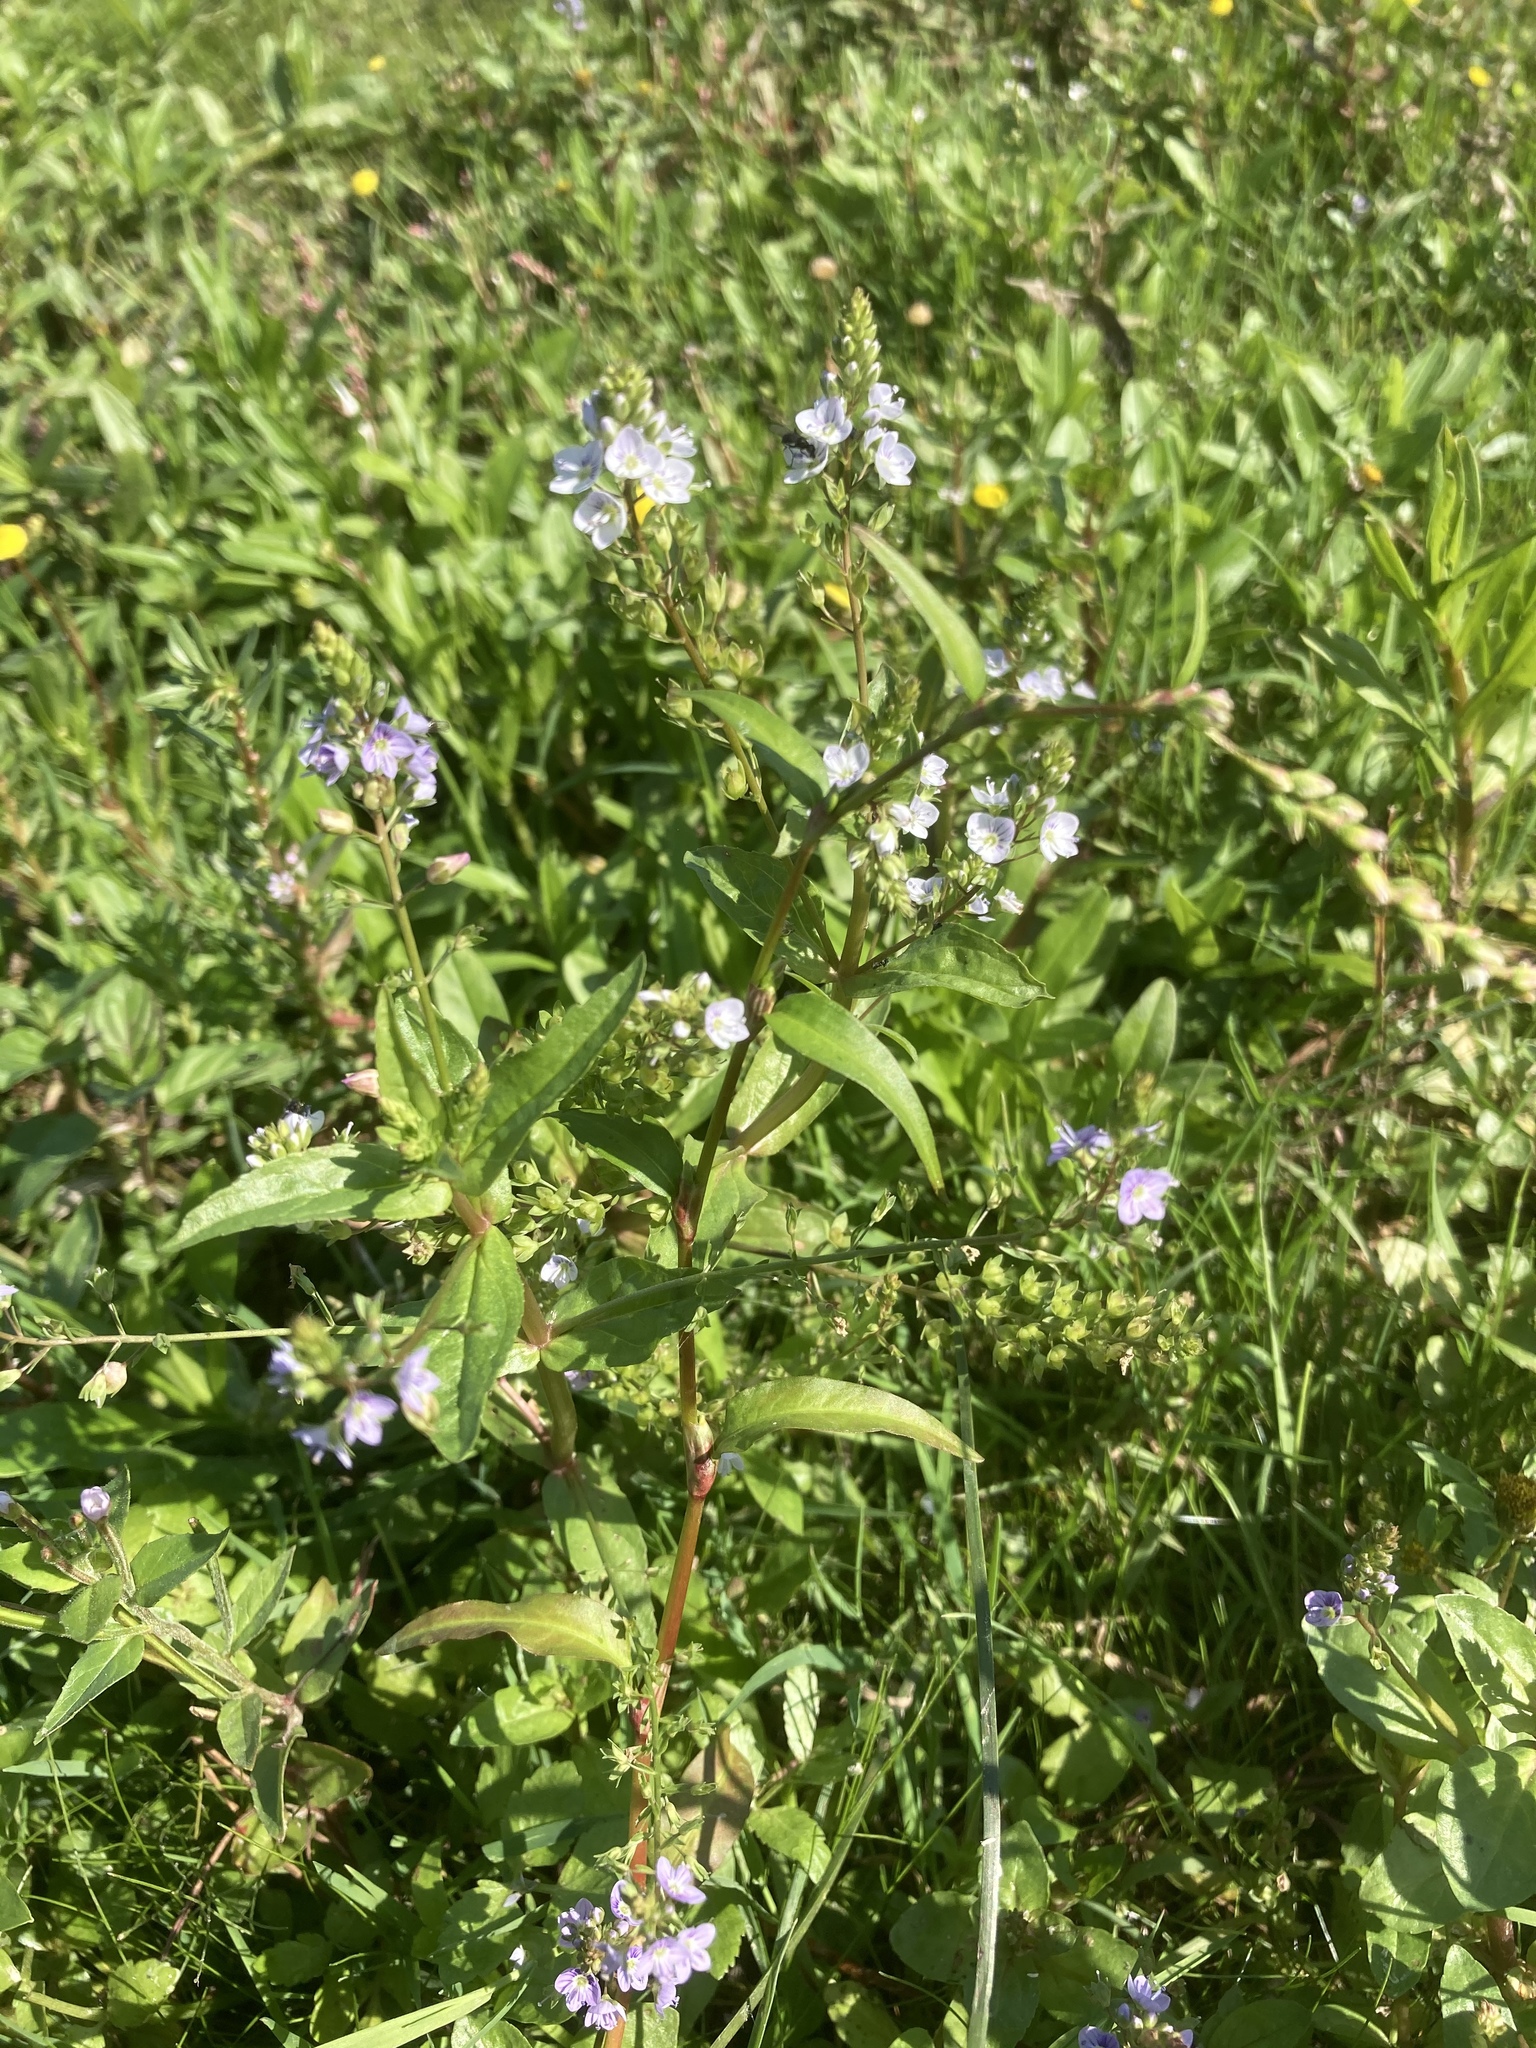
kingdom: Plantae
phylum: Tracheophyta
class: Magnoliopsida
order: Lamiales
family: Plantaginaceae
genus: Veronica
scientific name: Veronica anagallis-aquatica
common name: Water speedwell
